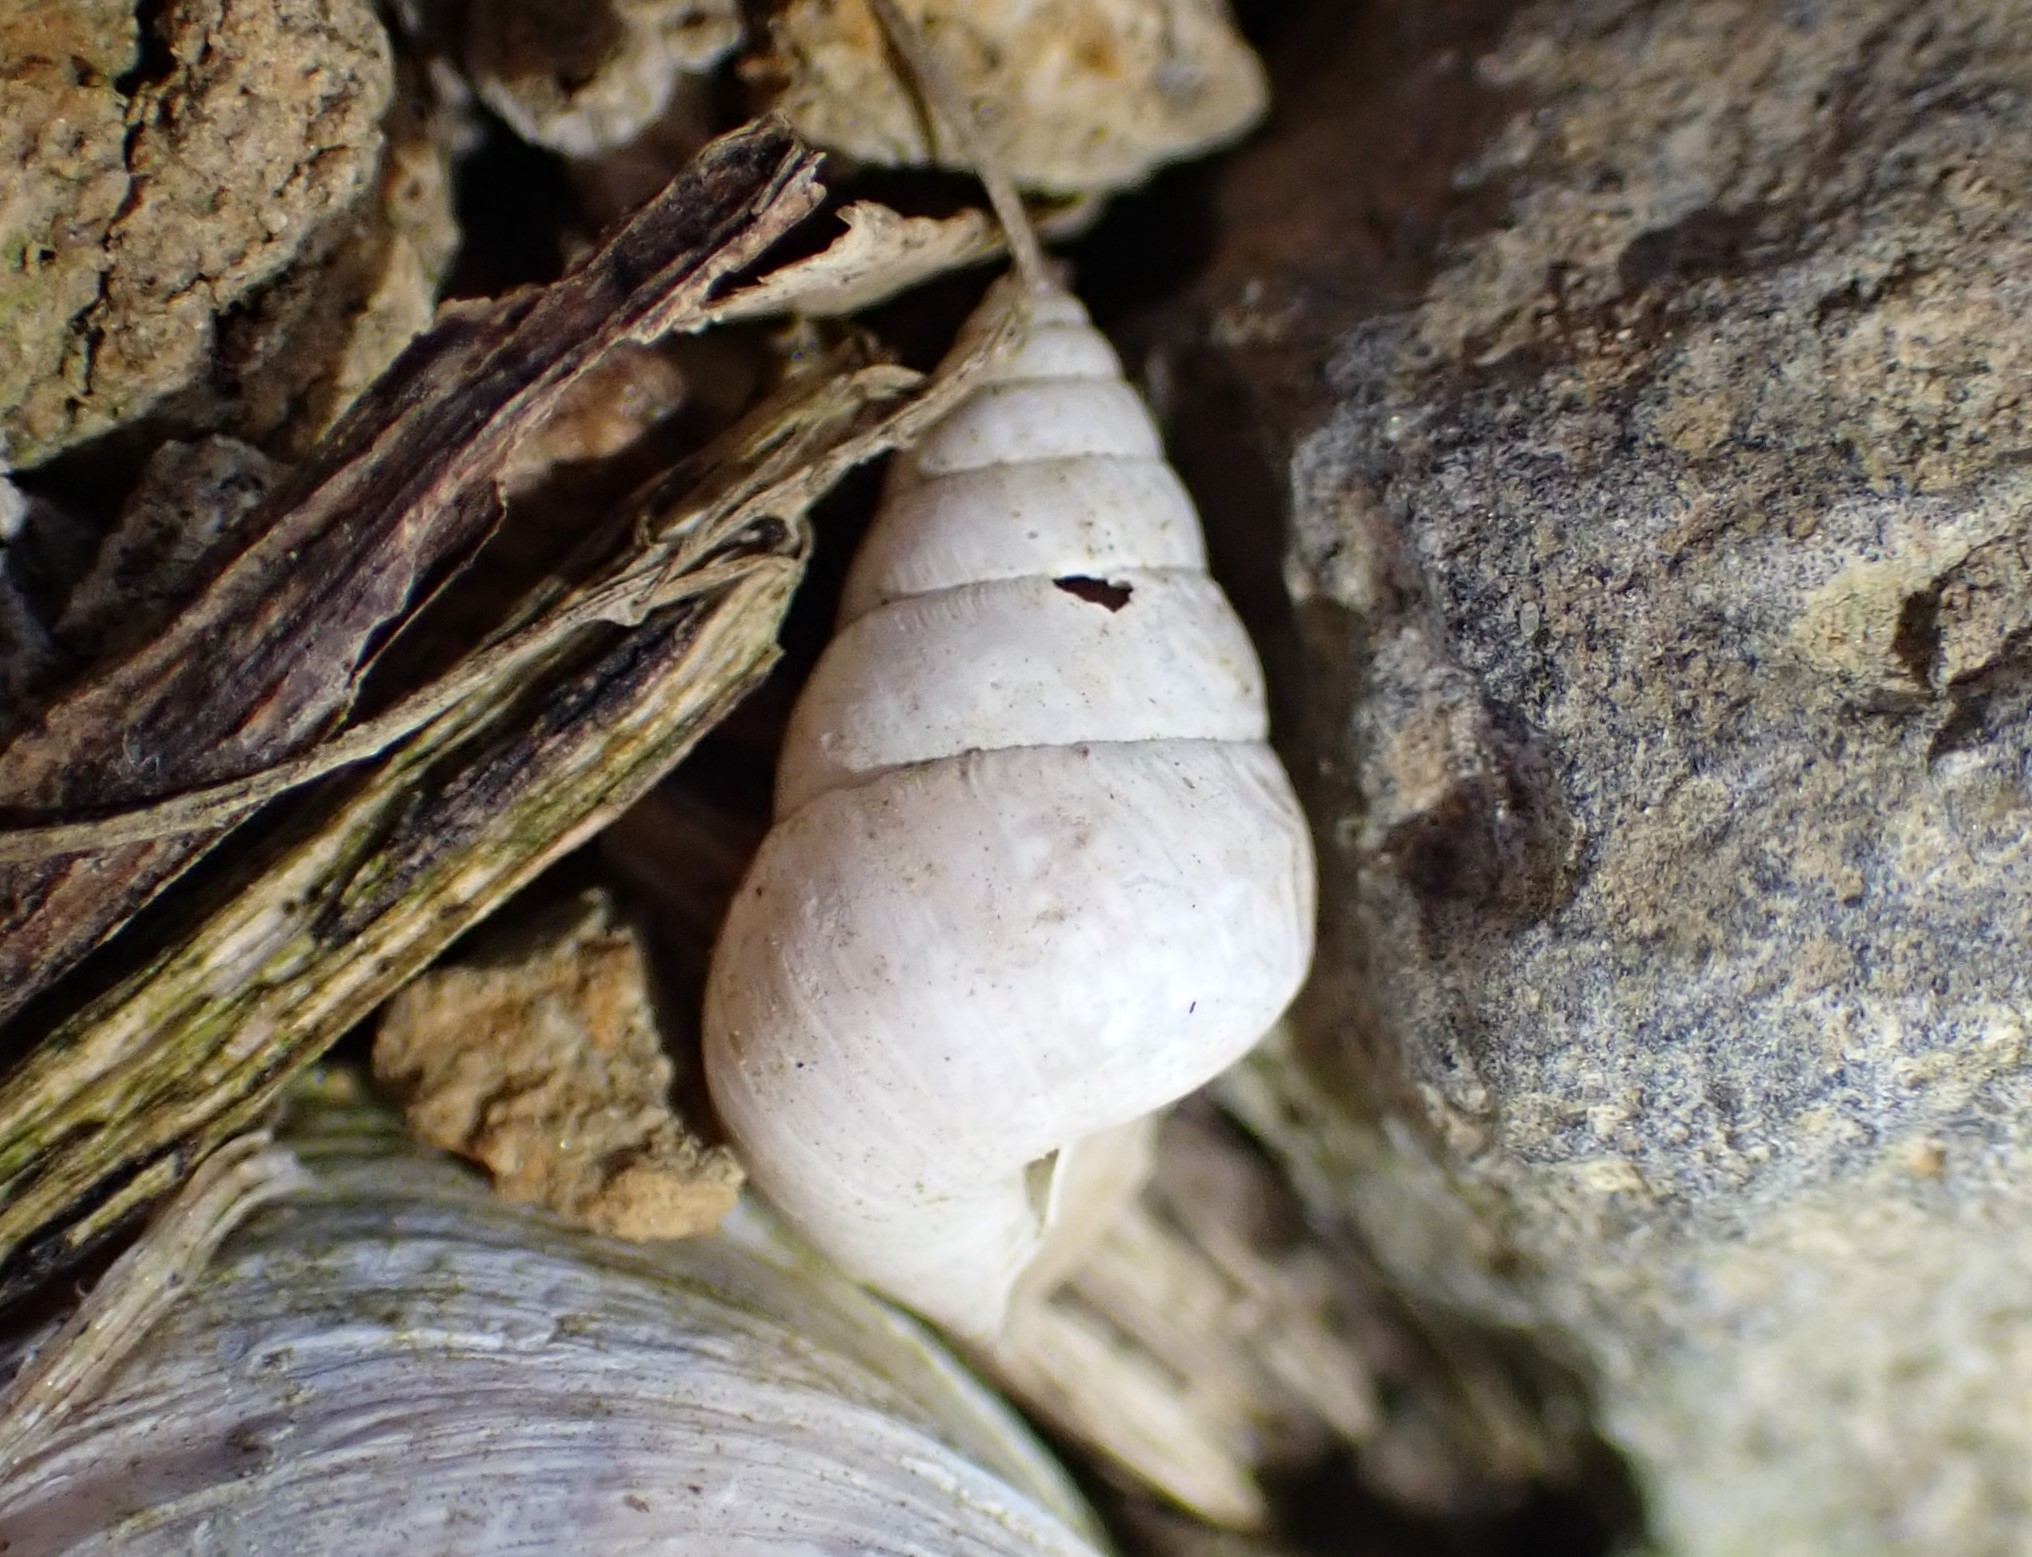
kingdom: Animalia
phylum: Mollusca
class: Gastropoda
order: Stylommatophora
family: Geomitridae
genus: Cochlicella
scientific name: Cochlicella barbara
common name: Potbellied helicellid
